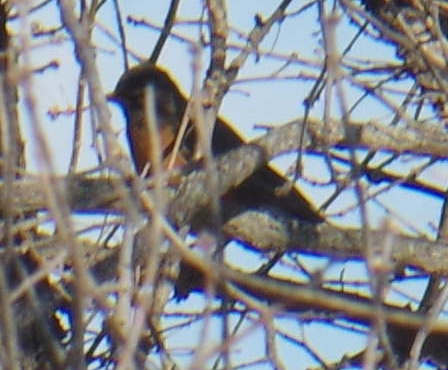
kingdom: Animalia
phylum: Chordata
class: Aves
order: Passeriformes
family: Turdidae
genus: Turdus
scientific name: Turdus migratorius
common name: American robin
